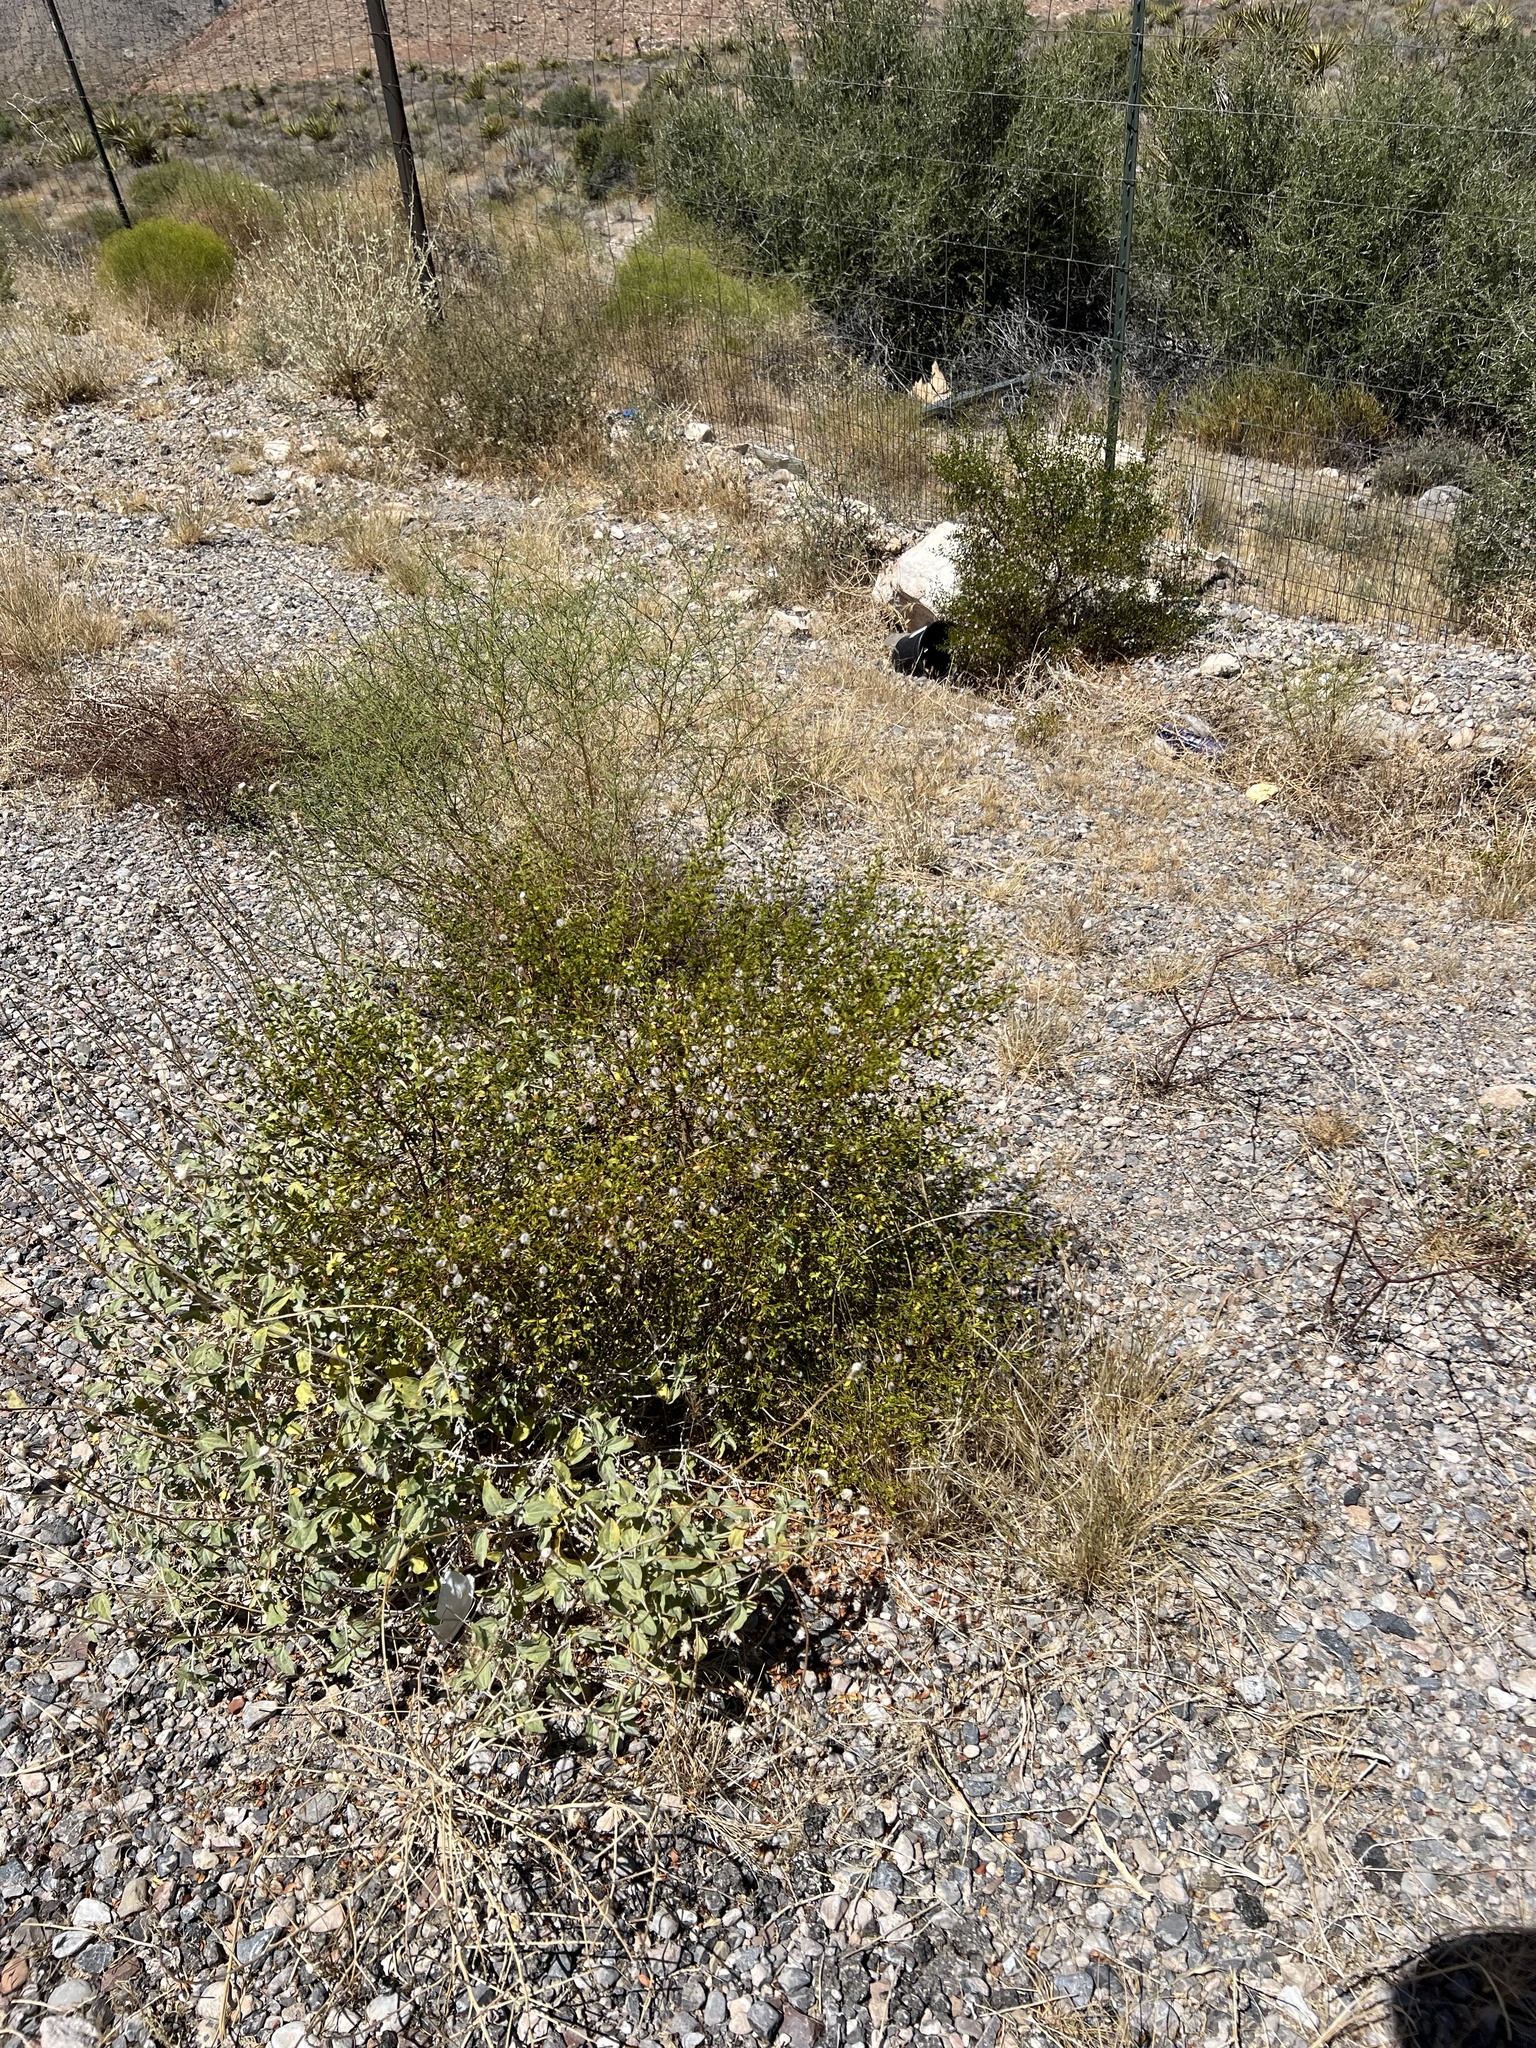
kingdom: Plantae
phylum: Tracheophyta
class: Magnoliopsida
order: Zygophyllales
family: Zygophyllaceae
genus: Larrea
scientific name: Larrea tridentata
